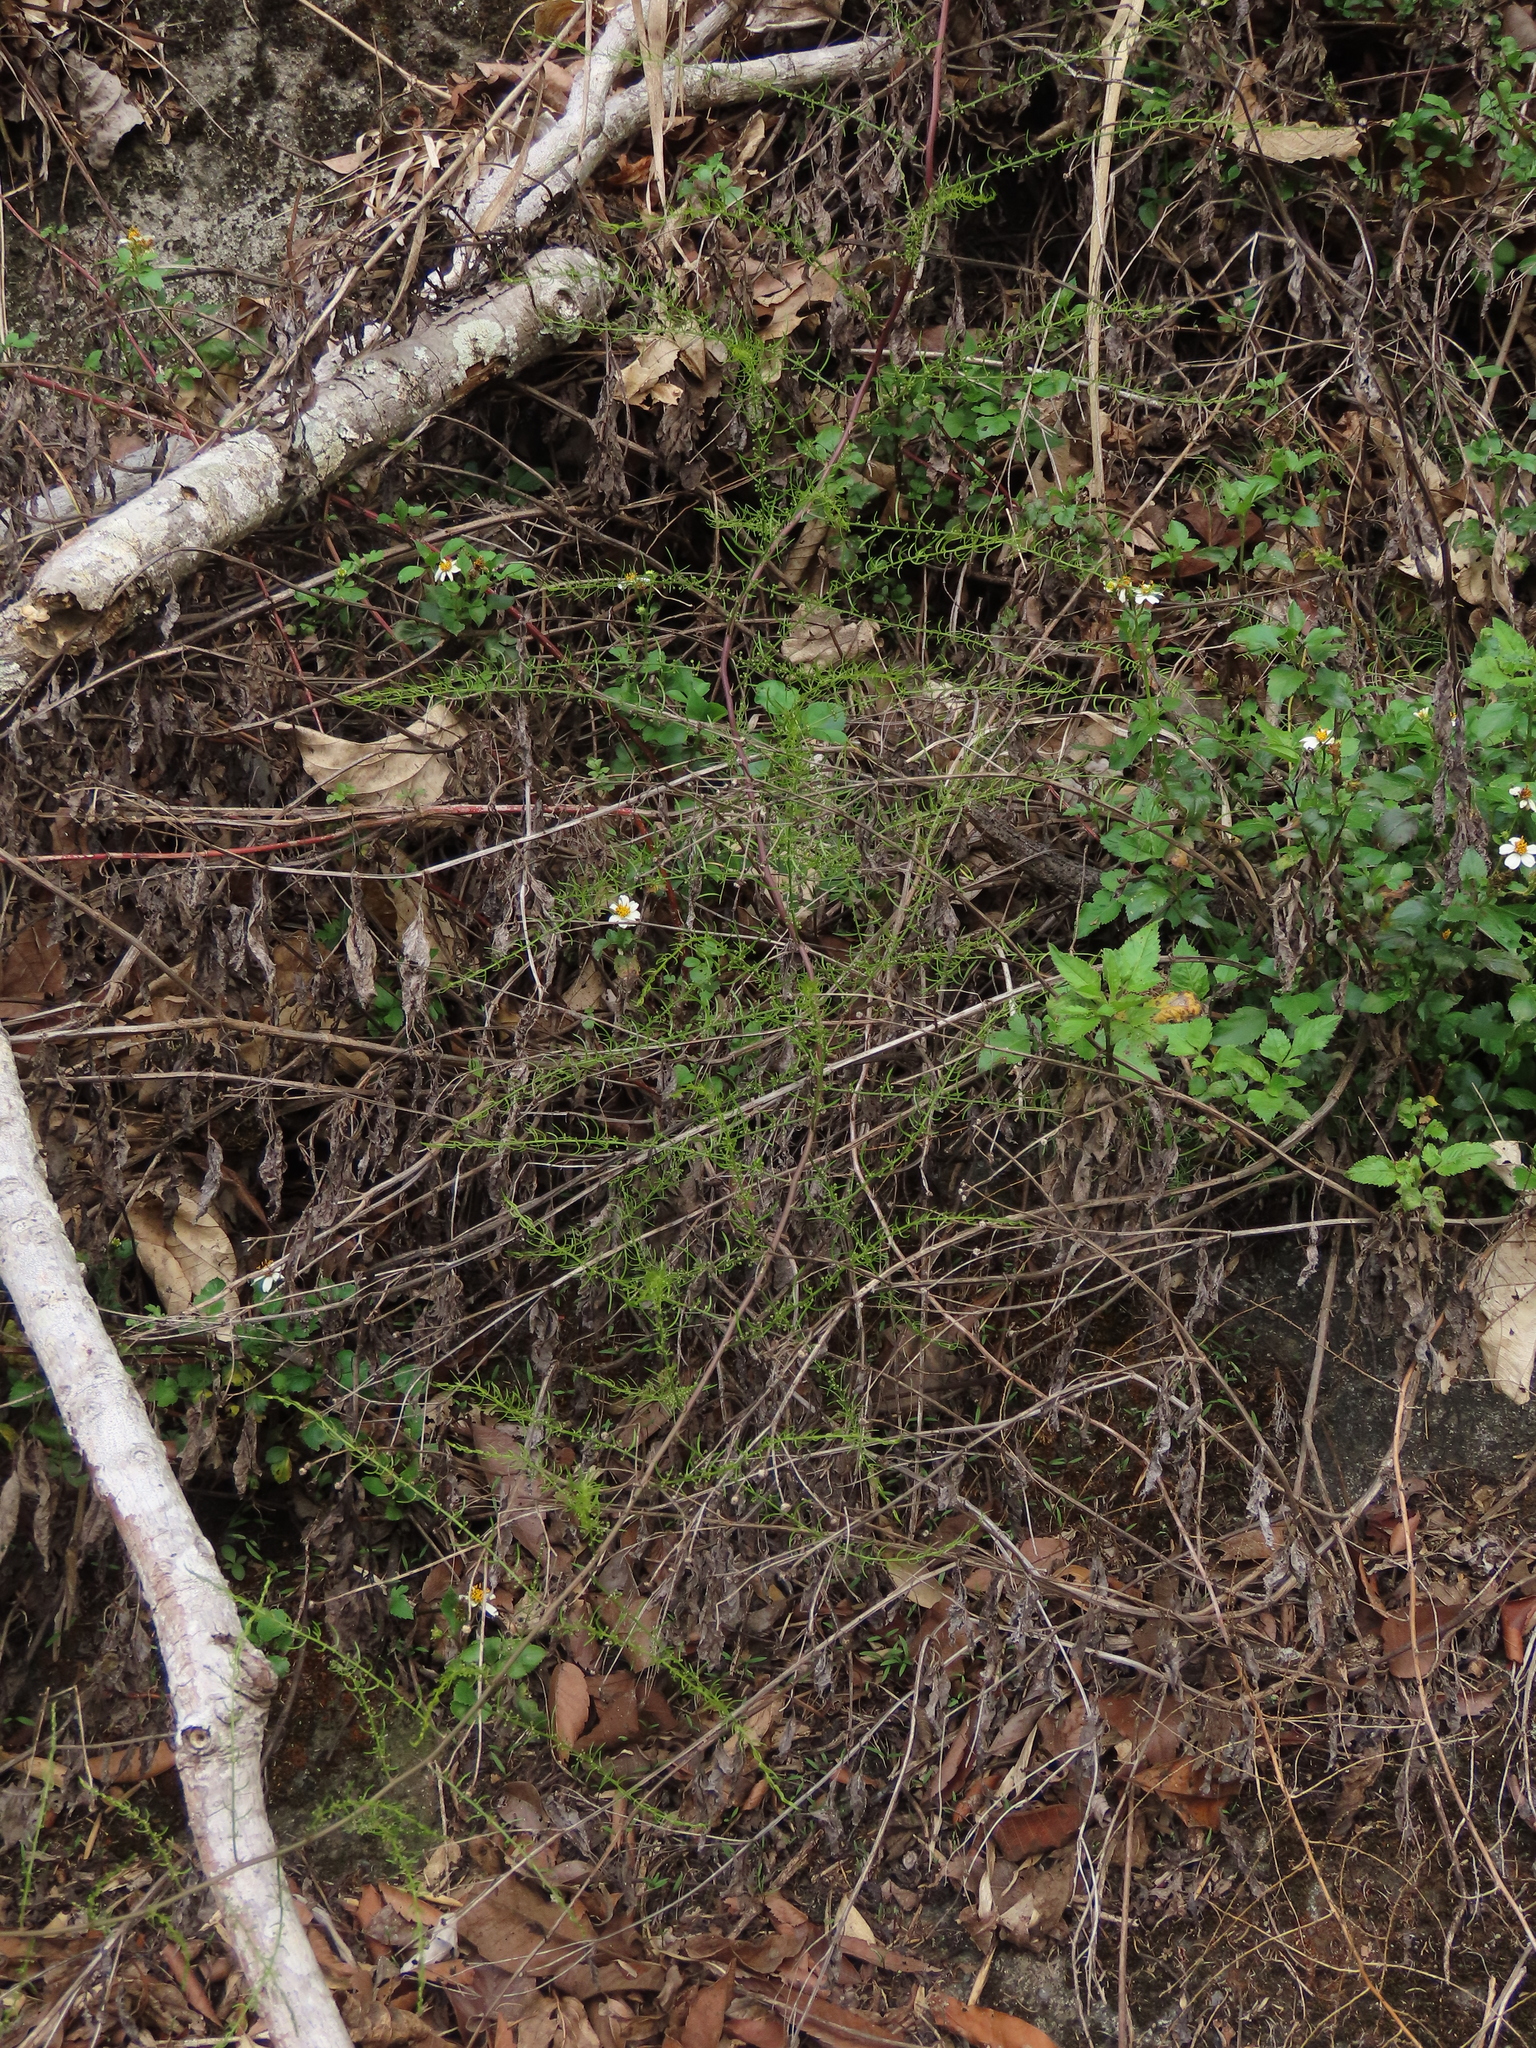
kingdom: Plantae
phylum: Tracheophyta
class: Liliopsida
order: Asparagales
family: Asparagaceae
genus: Asparagus
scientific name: Asparagus cochinchinensis
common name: Chinese asparagus
